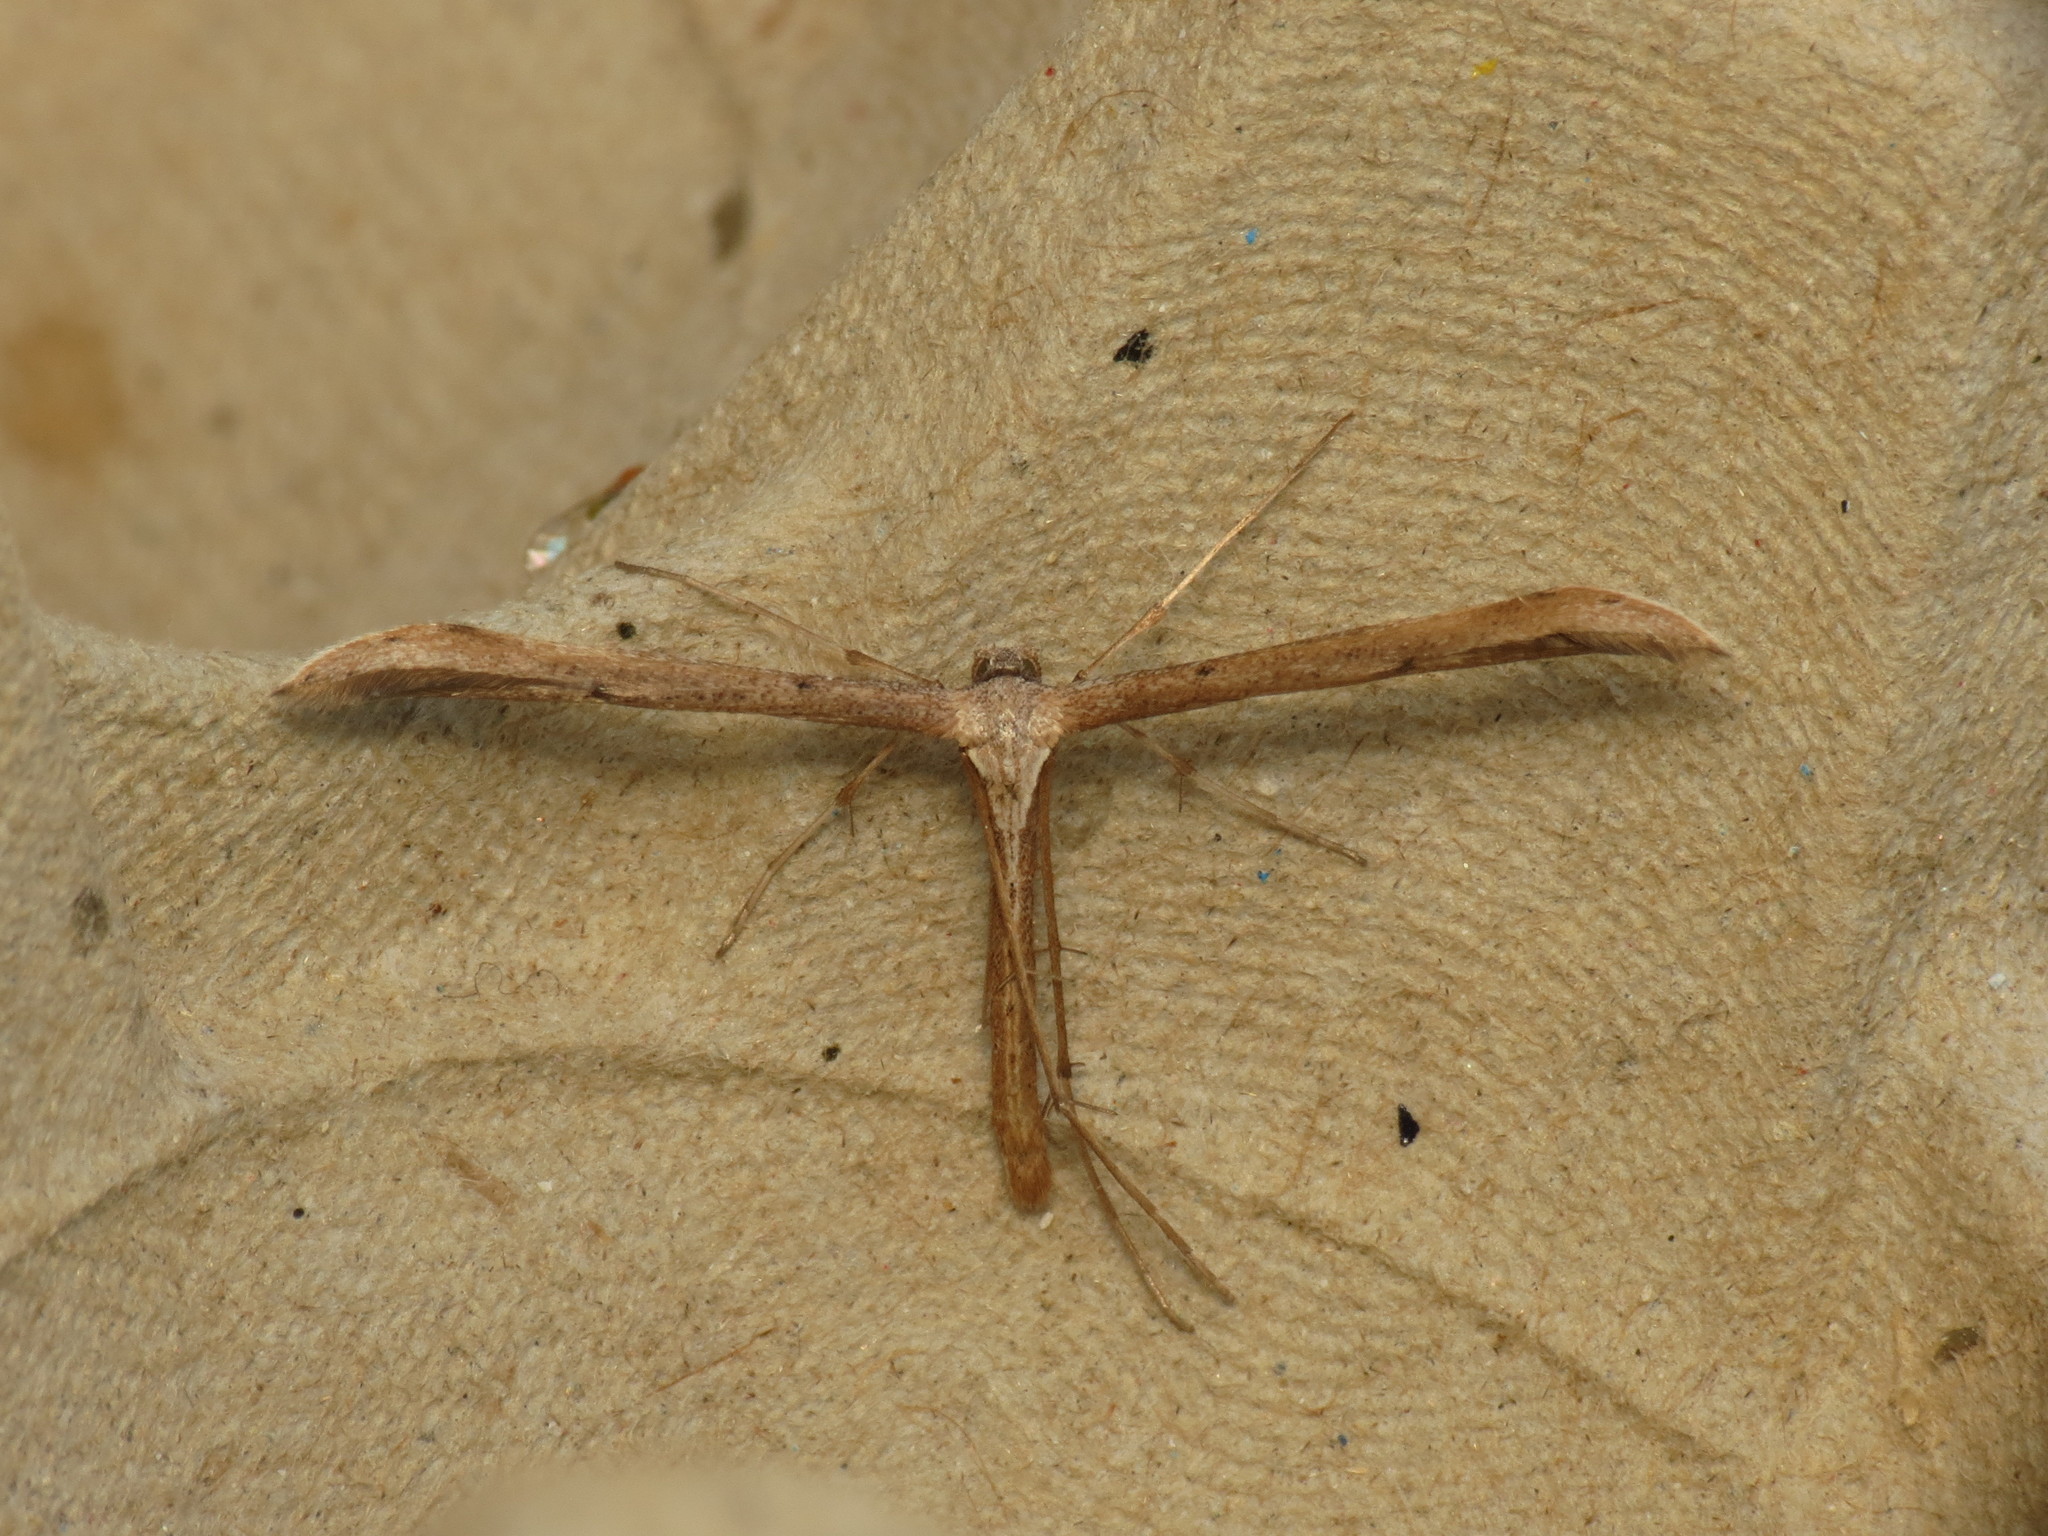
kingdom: Animalia
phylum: Arthropoda
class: Insecta
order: Lepidoptera
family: Pterophoridae
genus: Emmelina
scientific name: Emmelina monodactyla
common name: Common plume
